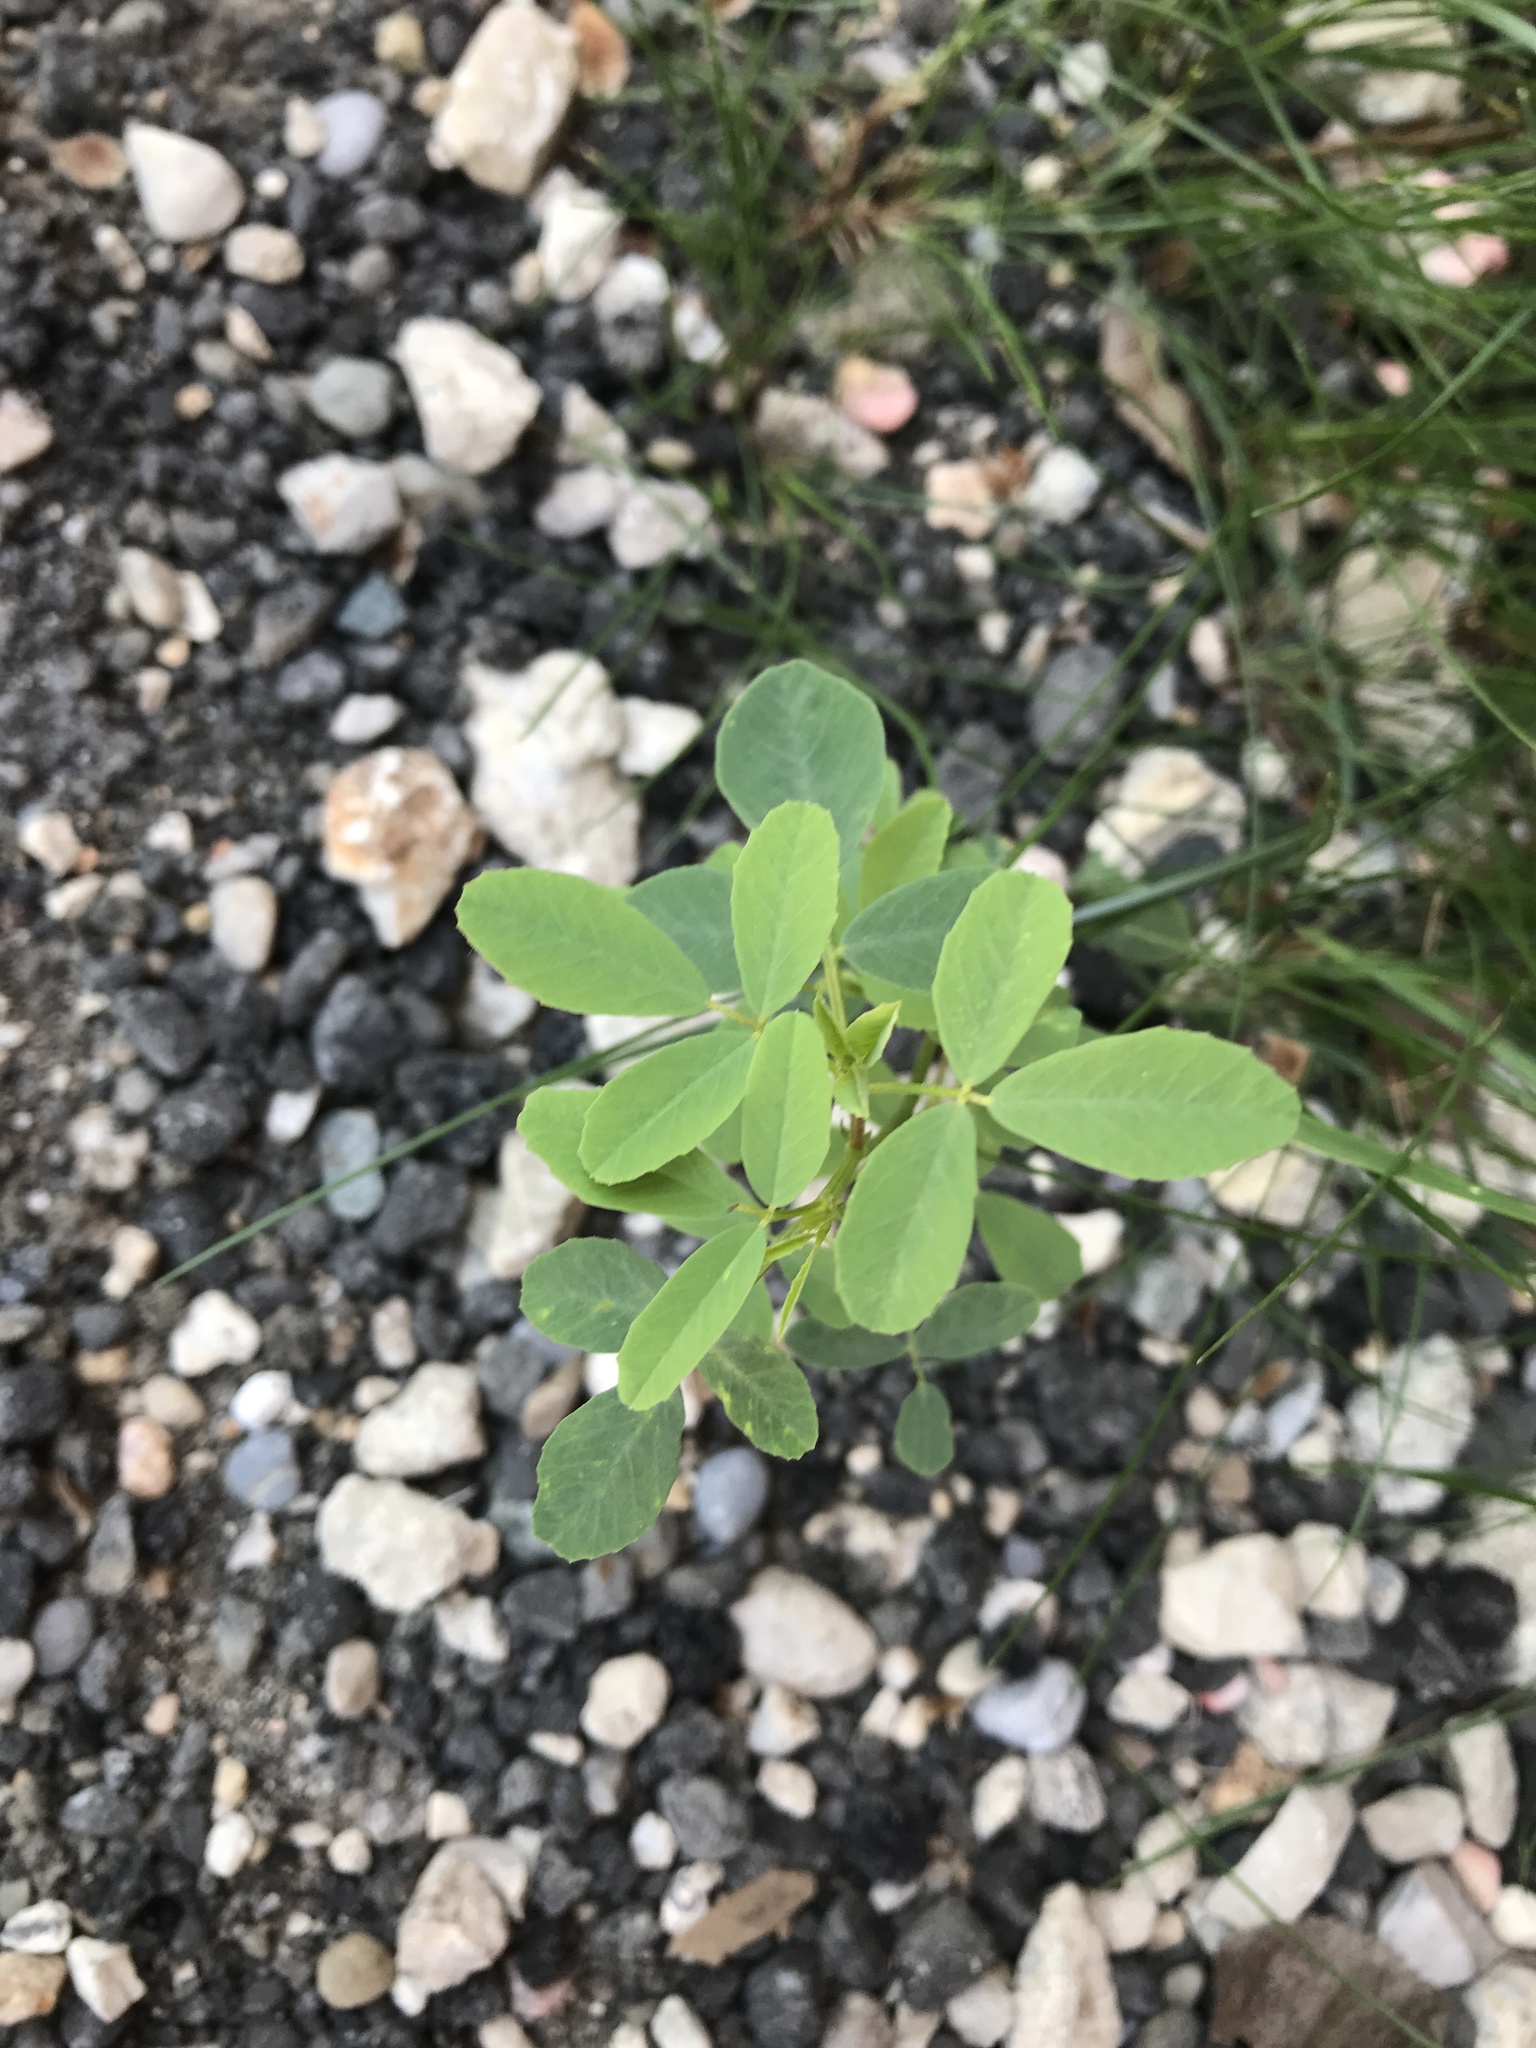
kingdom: Plantae
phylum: Tracheophyta
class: Magnoliopsida
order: Fabales
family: Fabaceae
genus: Melilotus
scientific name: Melilotus albus
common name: White melilot
